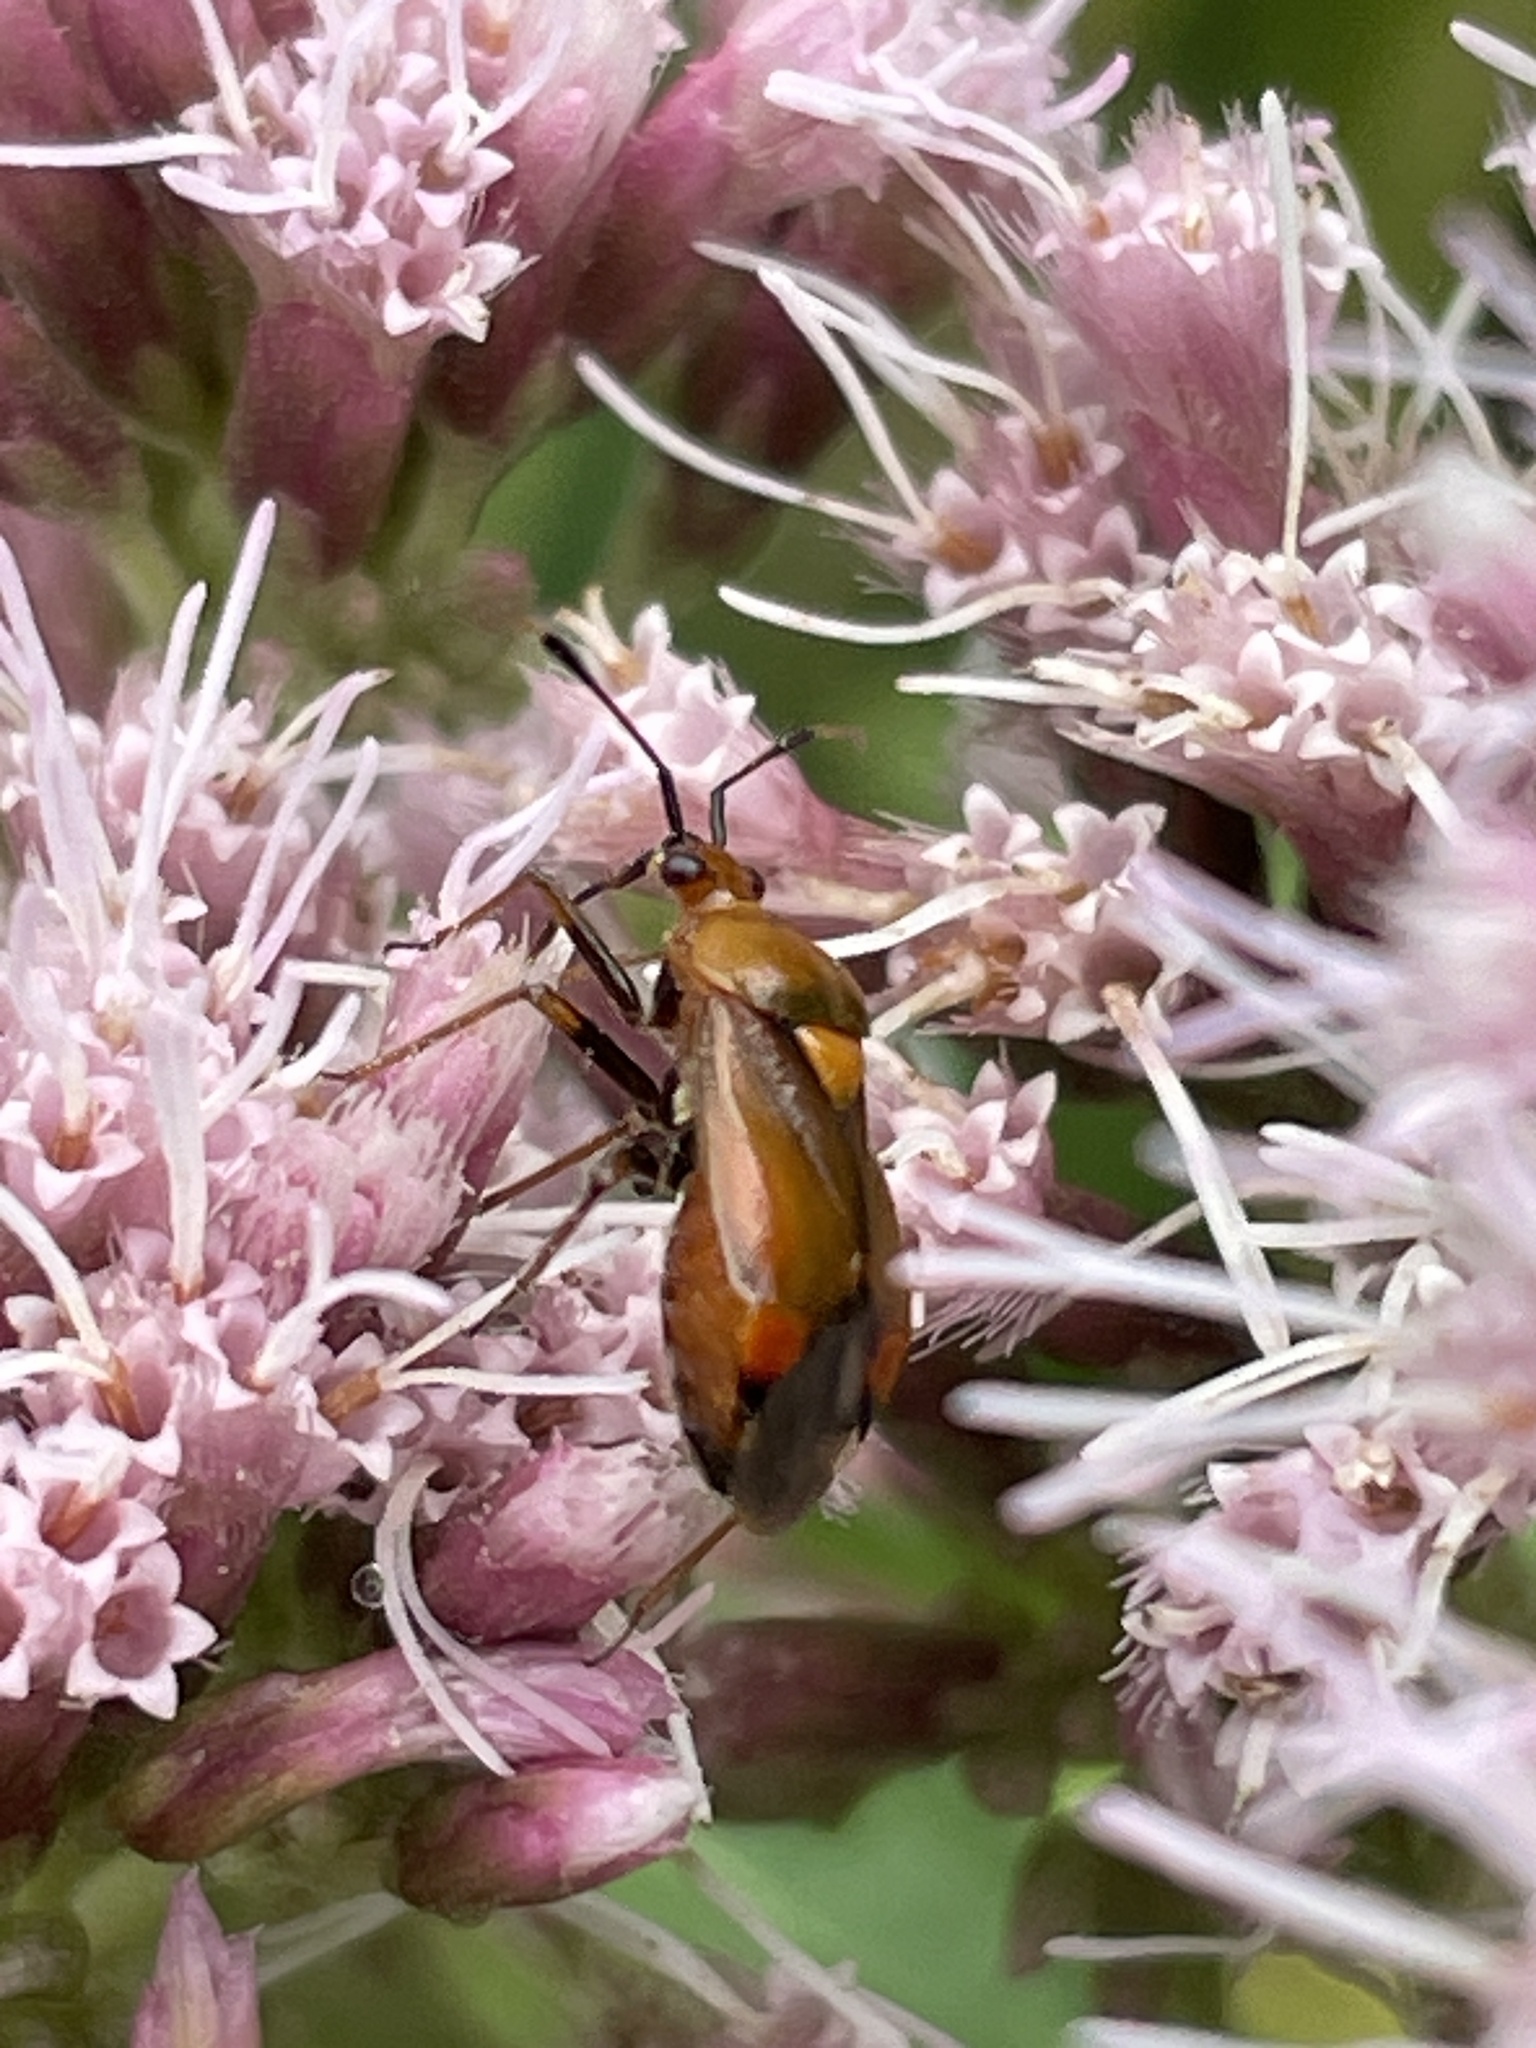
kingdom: Animalia
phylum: Arthropoda
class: Insecta
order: Hemiptera
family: Miridae
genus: Deraeocoris
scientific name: Deraeocoris ruber
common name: Plant bug
